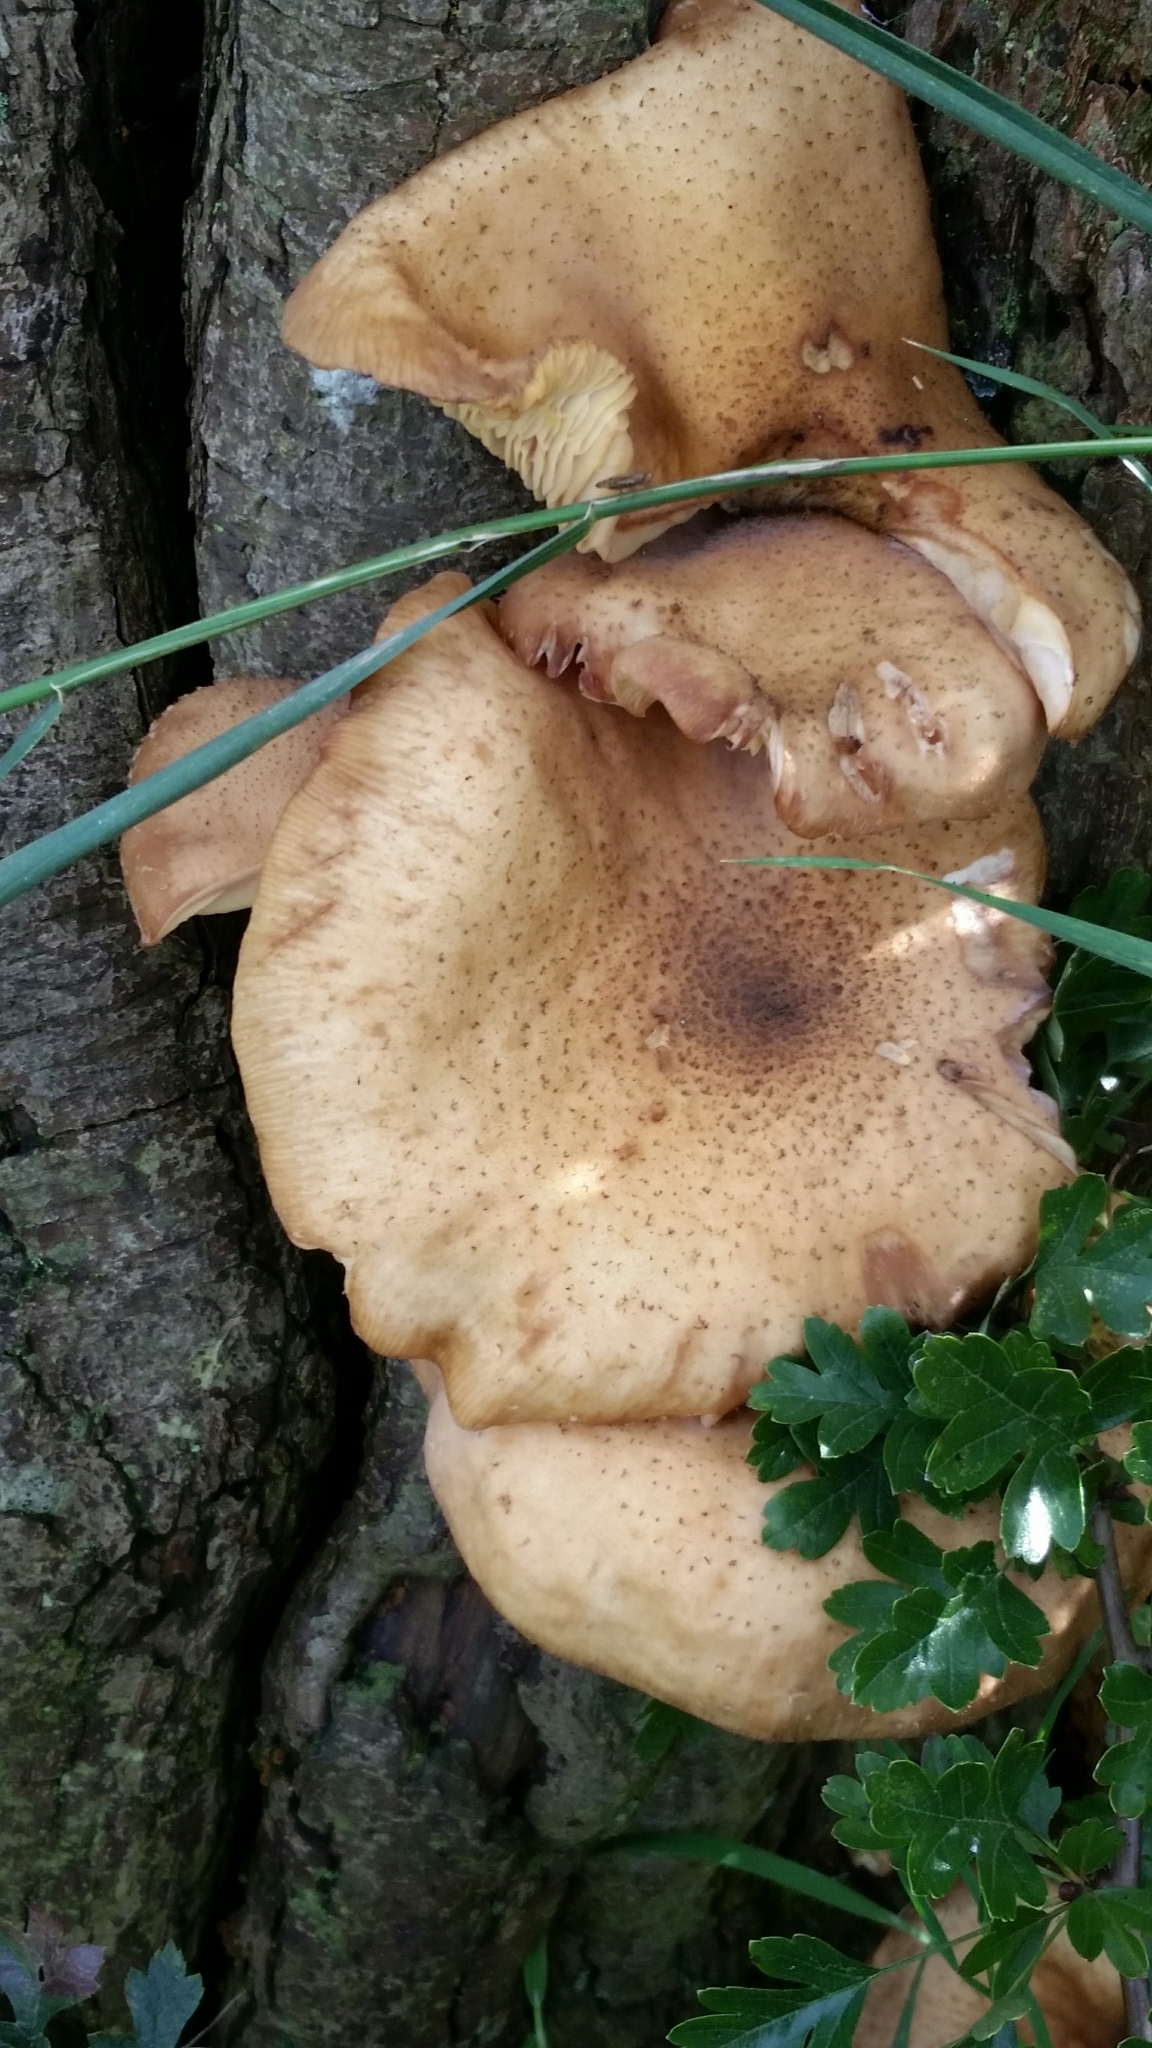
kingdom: Fungi
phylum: Basidiomycota
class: Agaricomycetes
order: Agaricales
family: Physalacriaceae
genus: Armillaria
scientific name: Armillaria mellea
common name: Honey fungus
